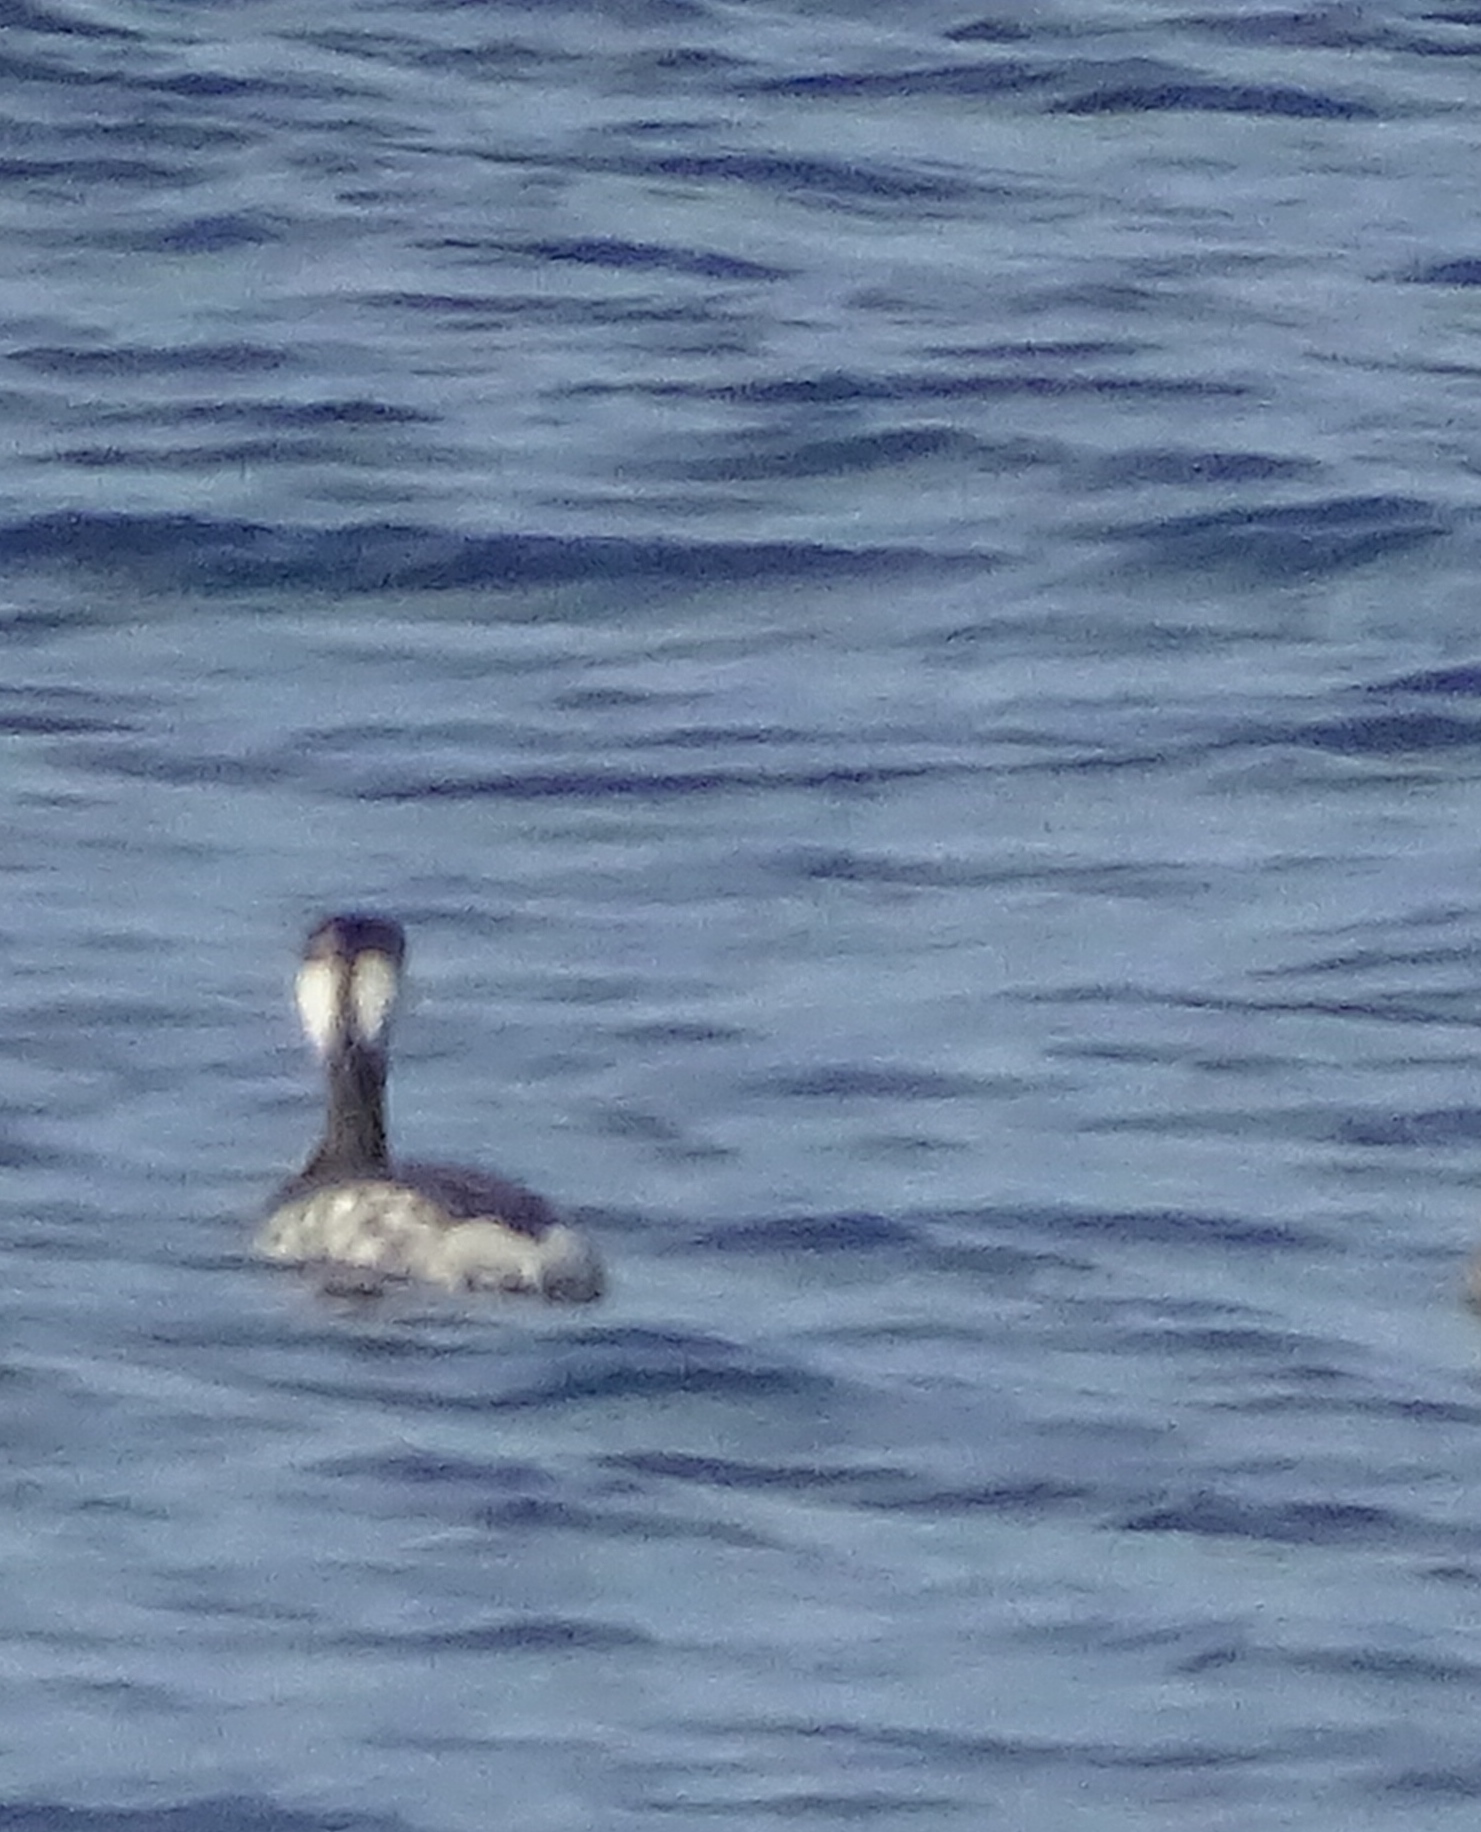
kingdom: Animalia
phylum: Chordata
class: Aves
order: Podicipediformes
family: Podicipedidae
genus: Podiceps
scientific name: Podiceps auritus
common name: Horned grebe
